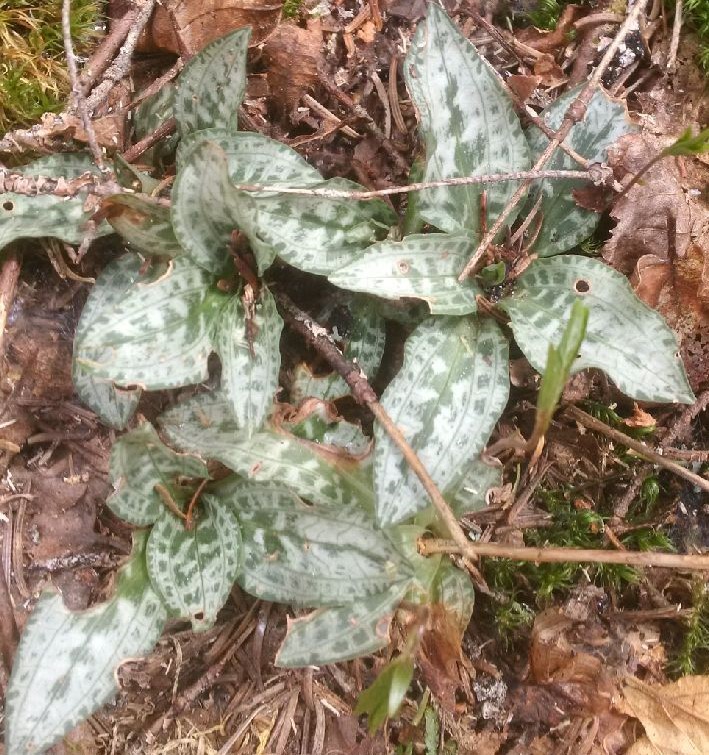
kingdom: Plantae
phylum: Tracheophyta
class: Liliopsida
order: Asparagales
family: Orchidaceae
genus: Goodyera
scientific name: Goodyera tesselata
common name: Checkered rattlesnake-plantain
